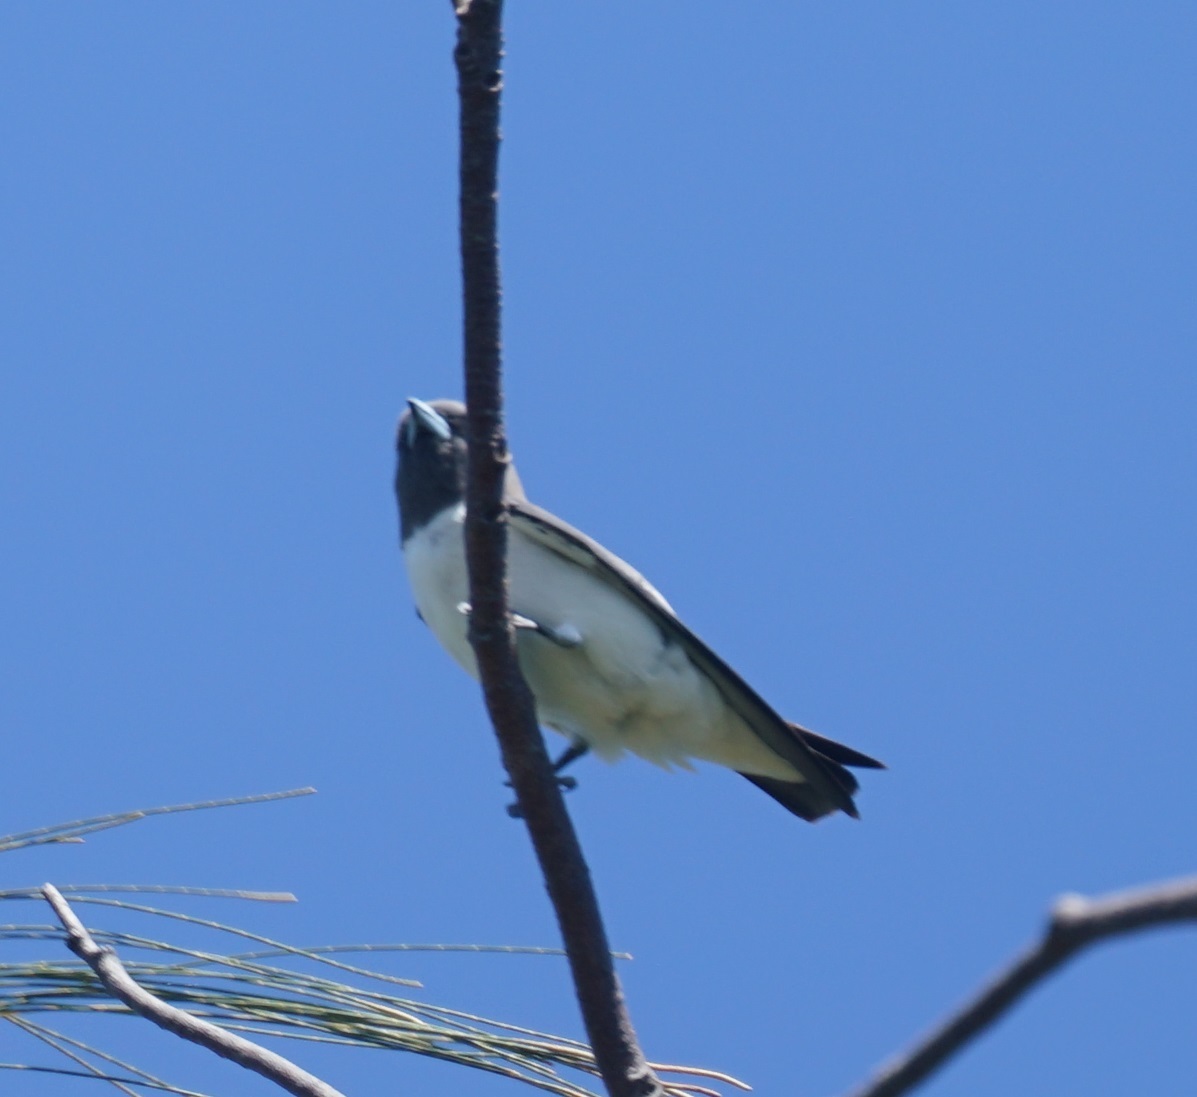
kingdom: Animalia
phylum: Chordata
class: Aves
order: Passeriformes
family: Artamidae
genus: Artamus
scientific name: Artamus leucoryn
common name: White-breasted woodswallow
